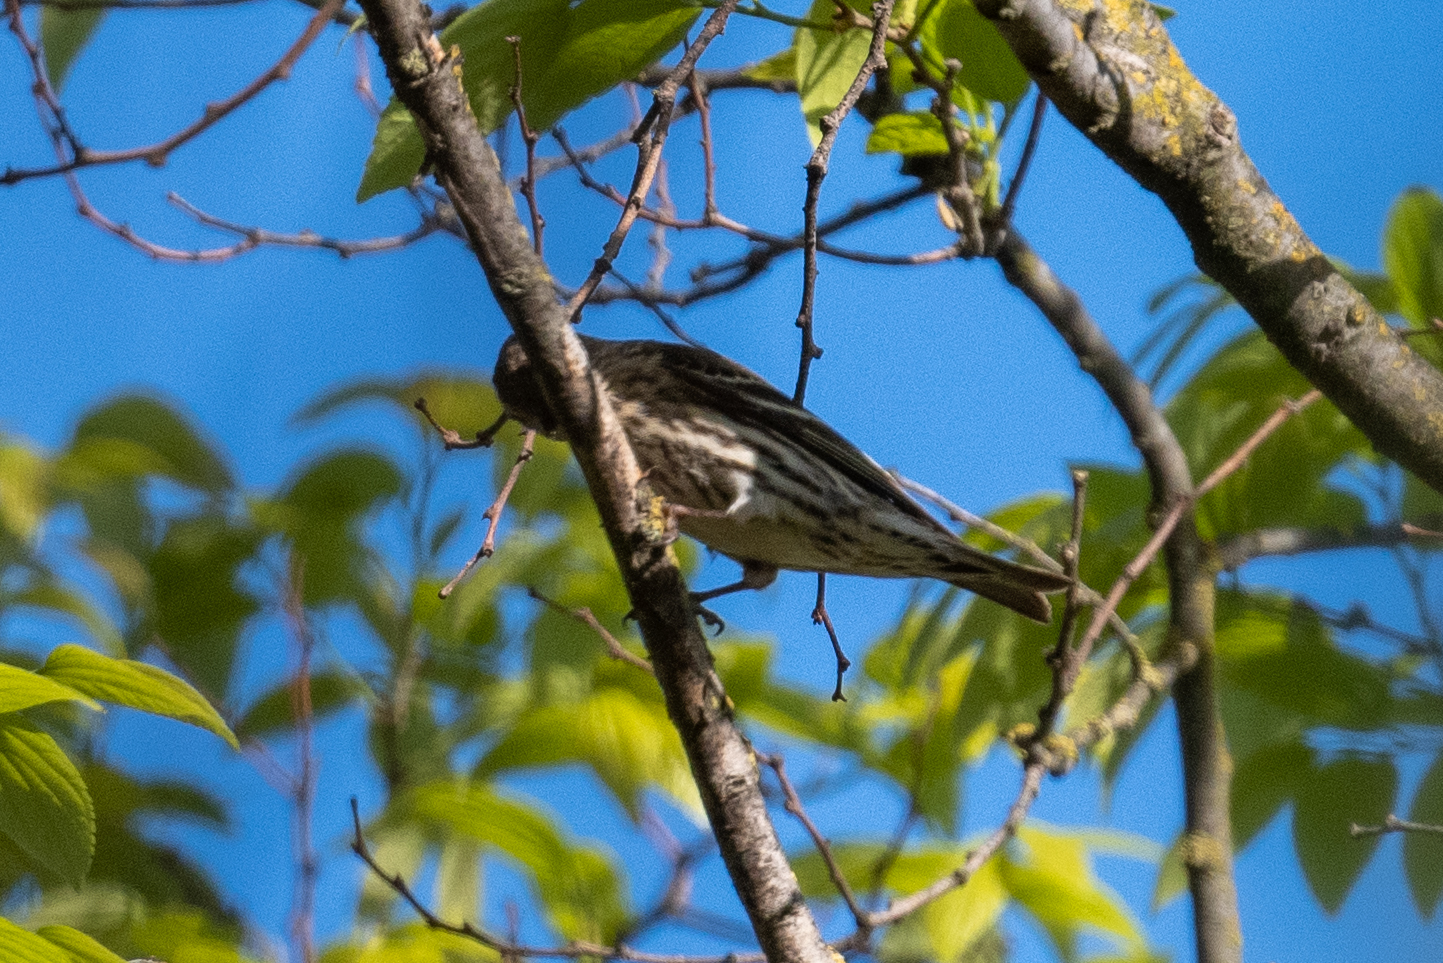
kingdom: Animalia
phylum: Chordata
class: Aves
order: Passeriformes
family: Fringillidae
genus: Spinus
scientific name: Spinus pinus
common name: Pine siskin
